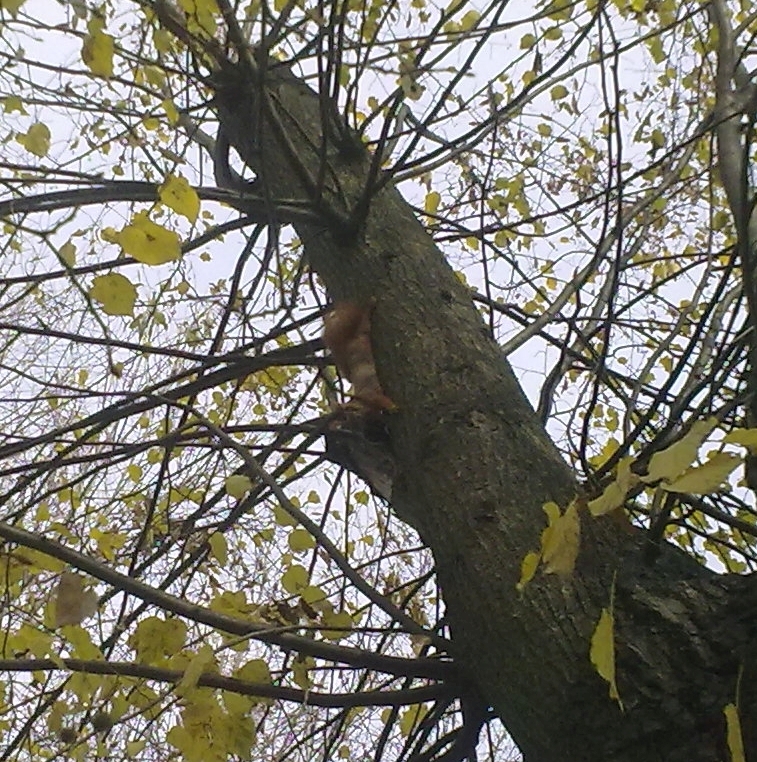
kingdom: Animalia
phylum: Chordata
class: Mammalia
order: Rodentia
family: Sciuridae
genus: Sciurus
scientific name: Sciurus vulgaris
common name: Eurasian red squirrel
